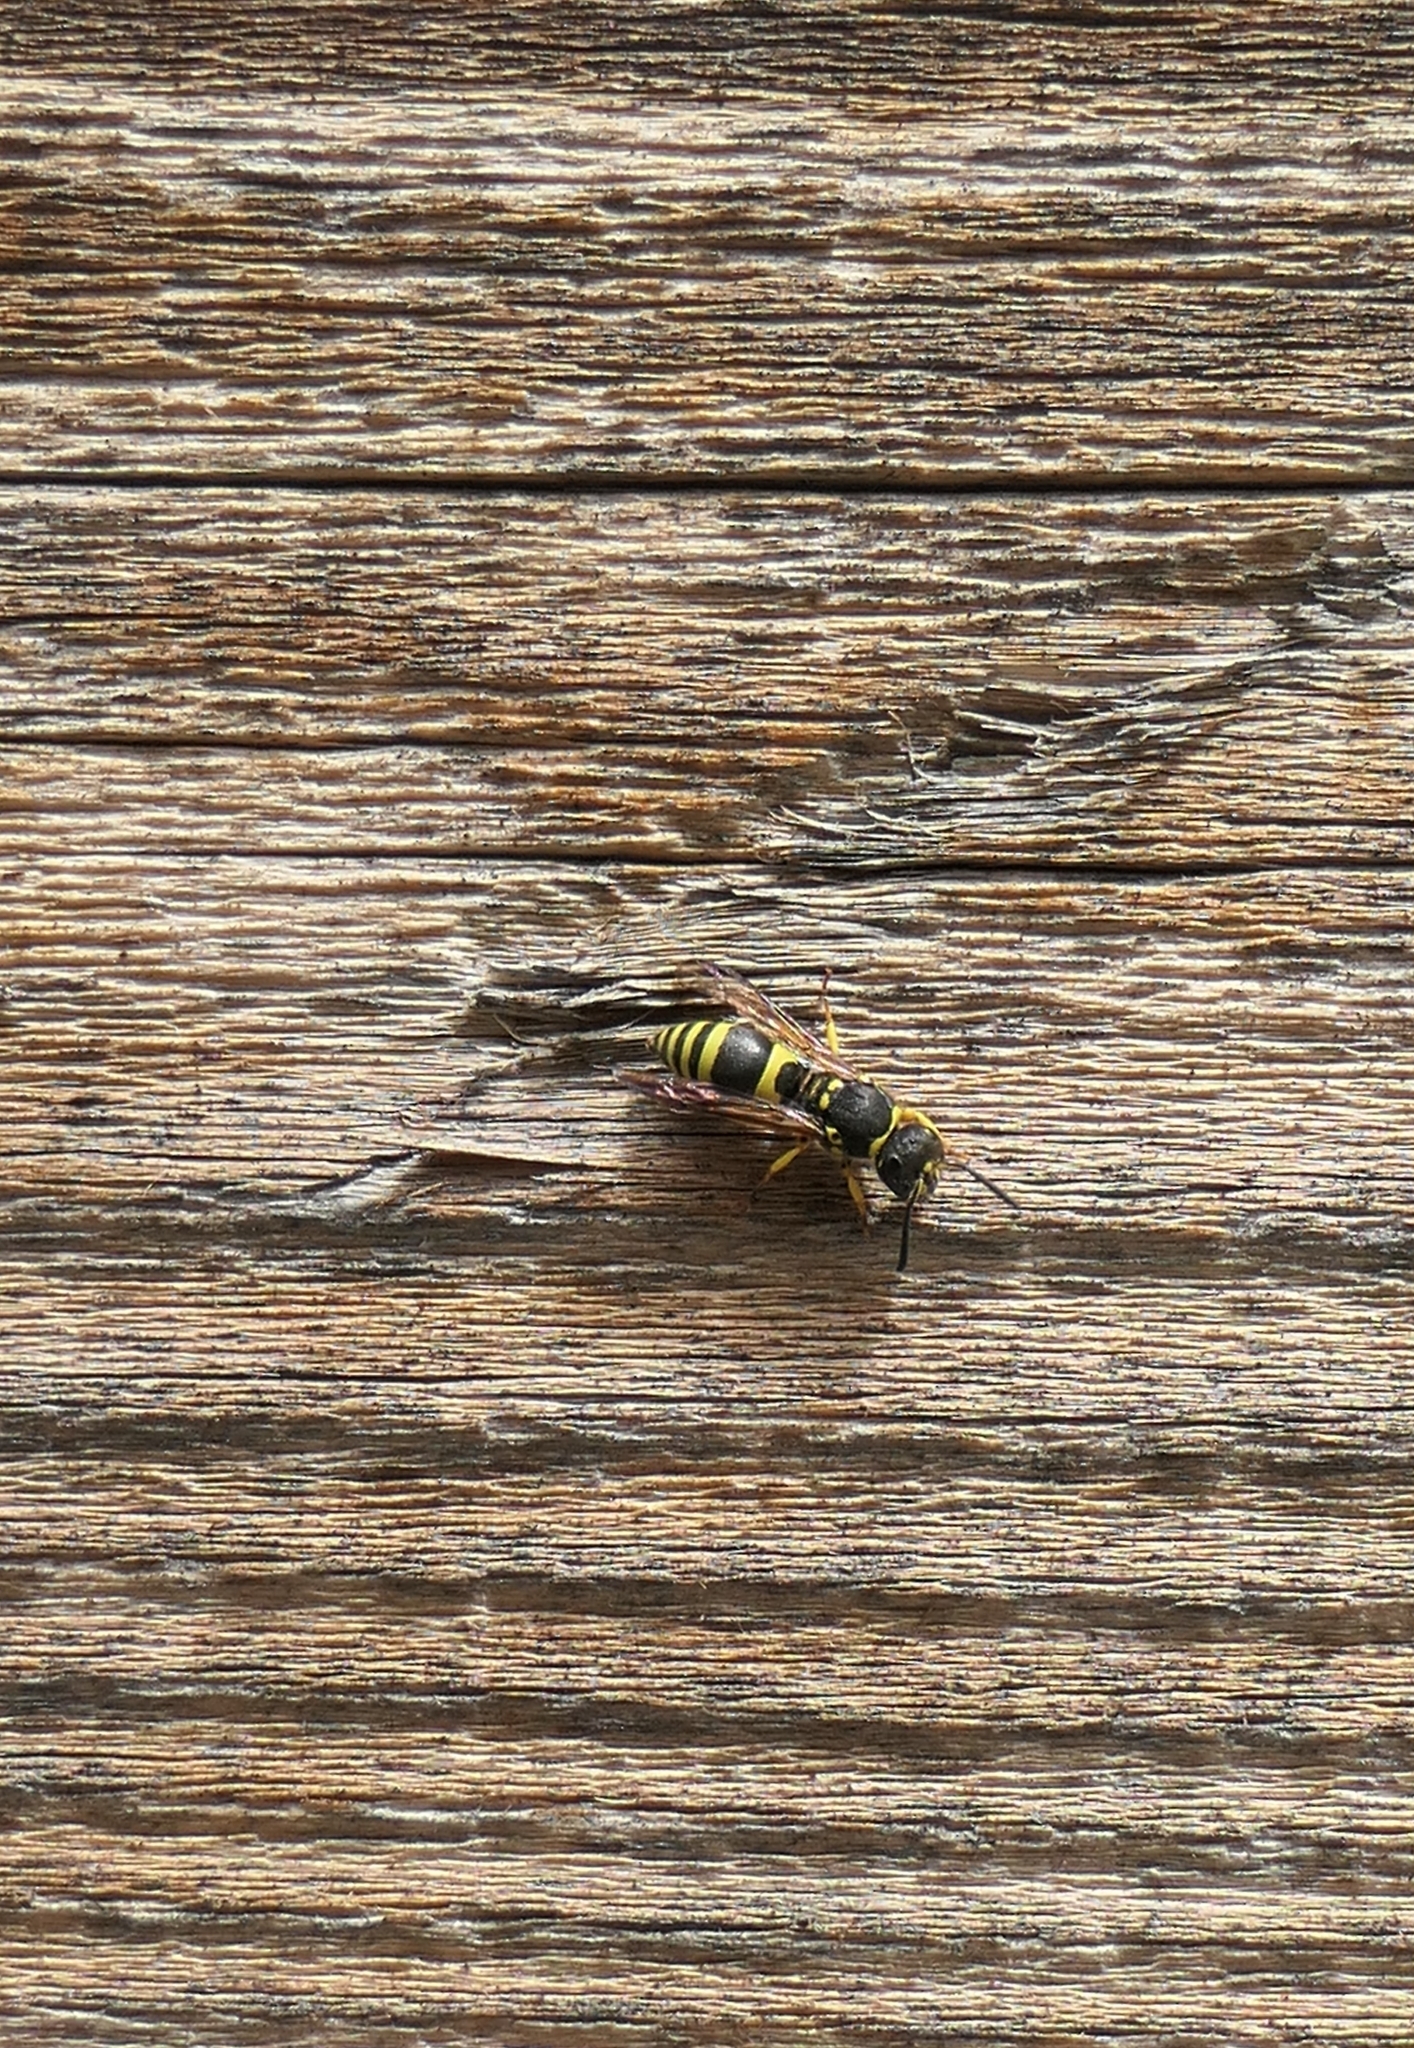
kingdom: Animalia
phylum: Arthropoda
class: Insecta
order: Hymenoptera
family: Vespidae
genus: Ancistrocerus
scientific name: Ancistrocerus gazella
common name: European tube wasp
